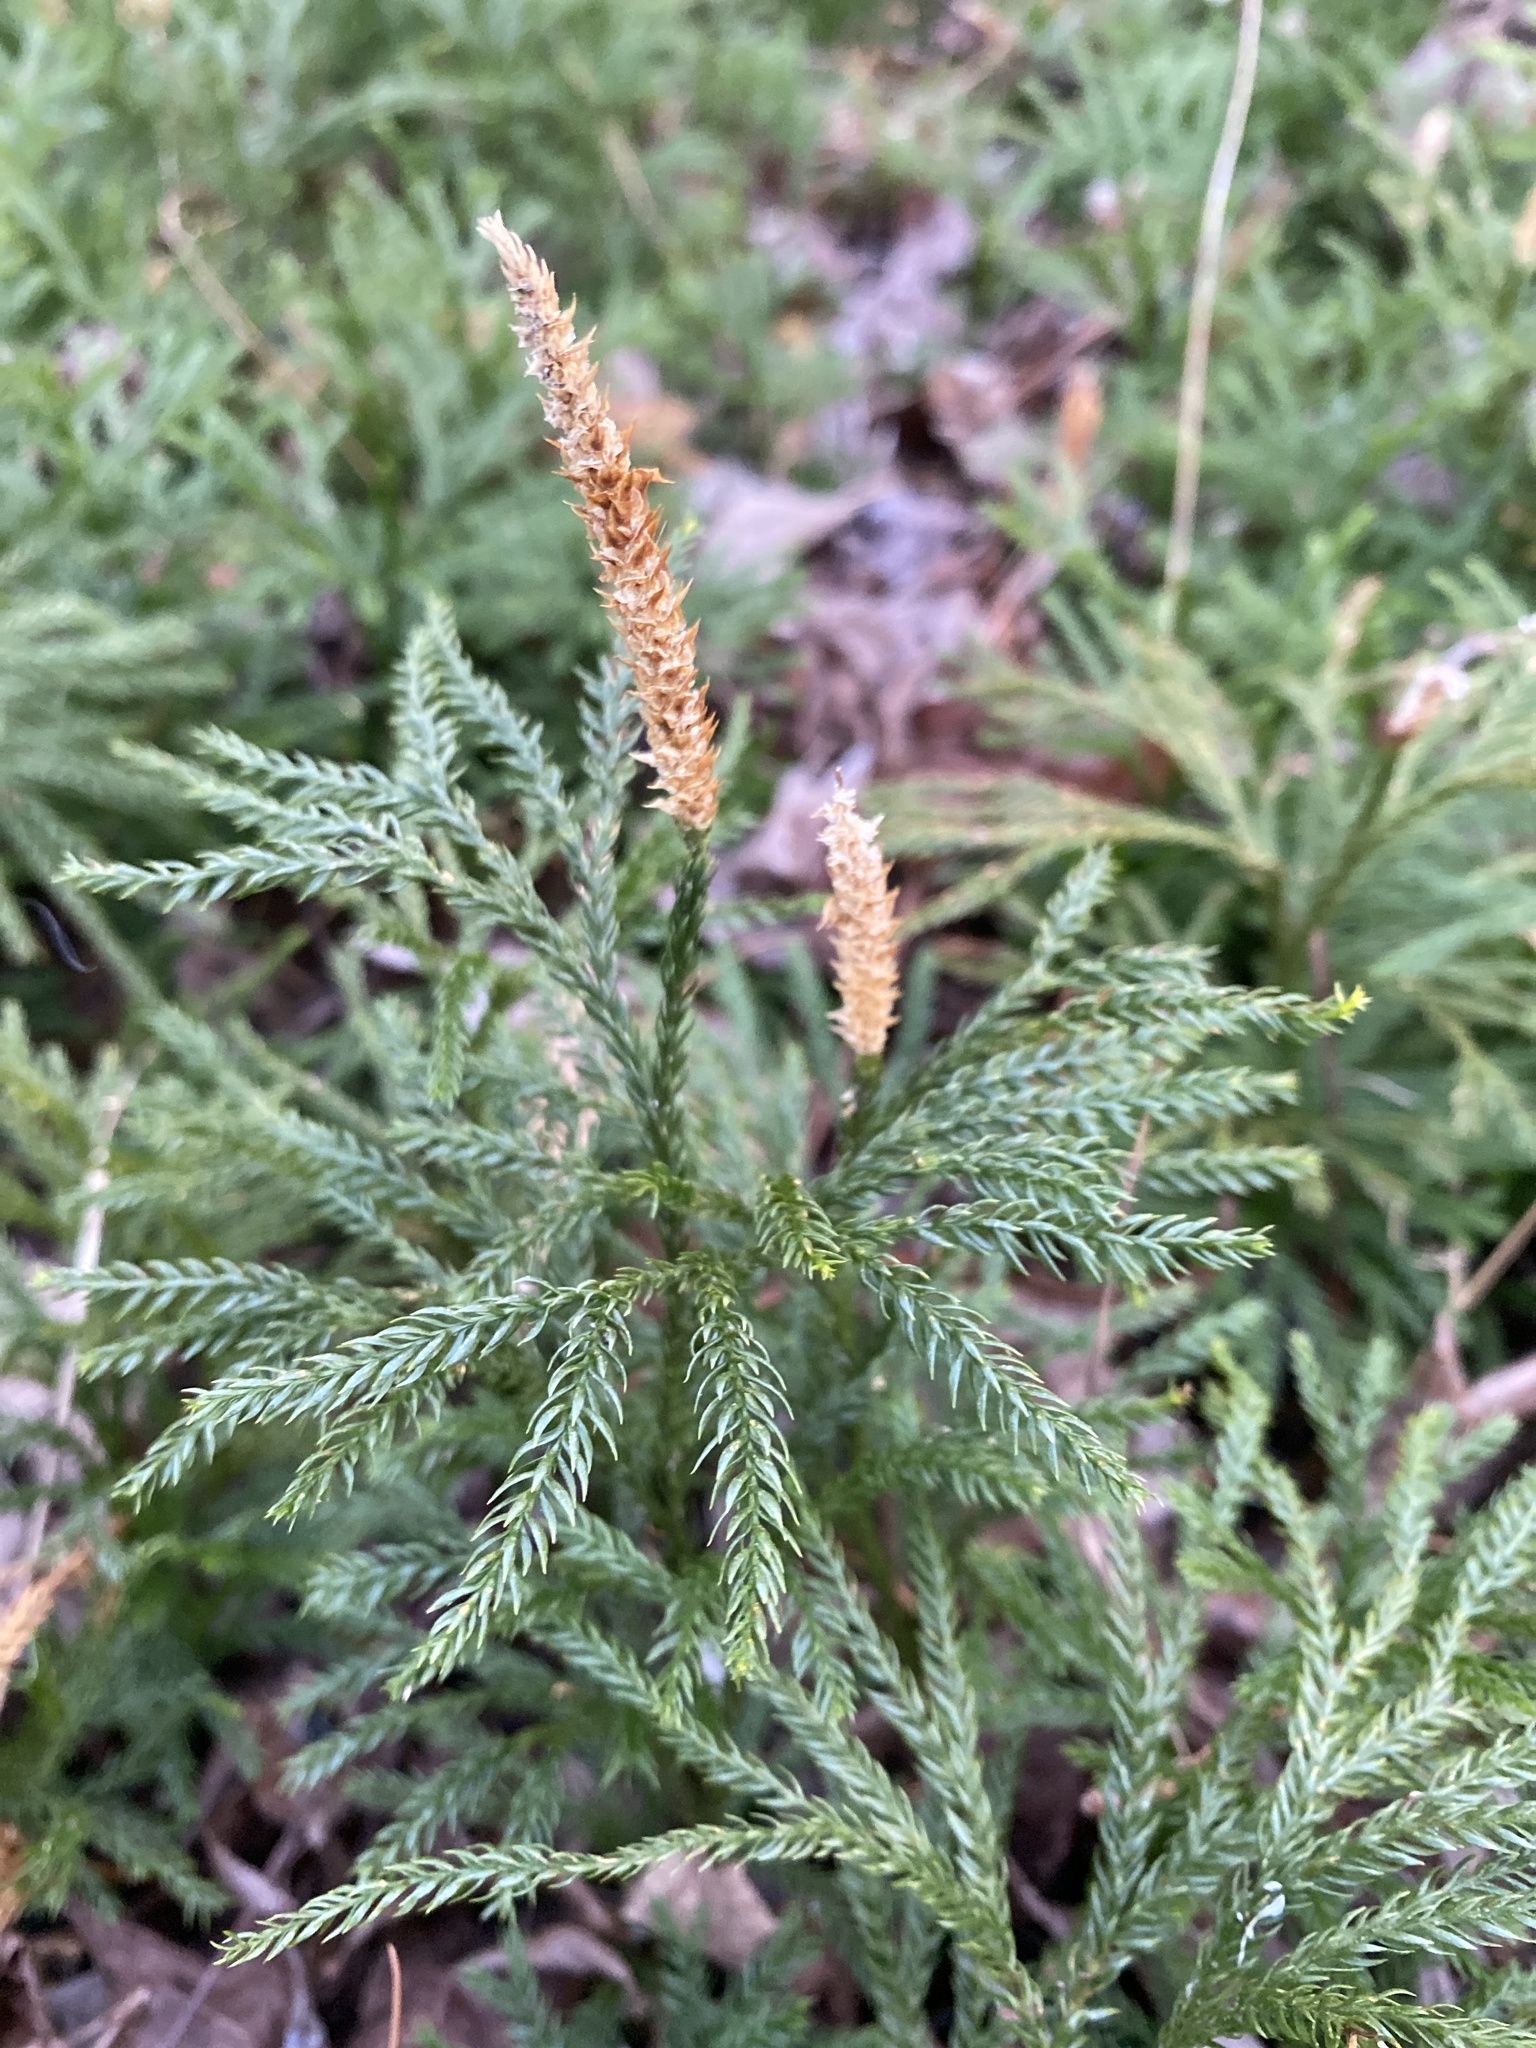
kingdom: Plantae
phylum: Tracheophyta
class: Lycopodiopsida
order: Lycopodiales
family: Lycopodiaceae
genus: Dendrolycopodium
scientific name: Dendrolycopodium obscurum
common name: Common ground-pine
